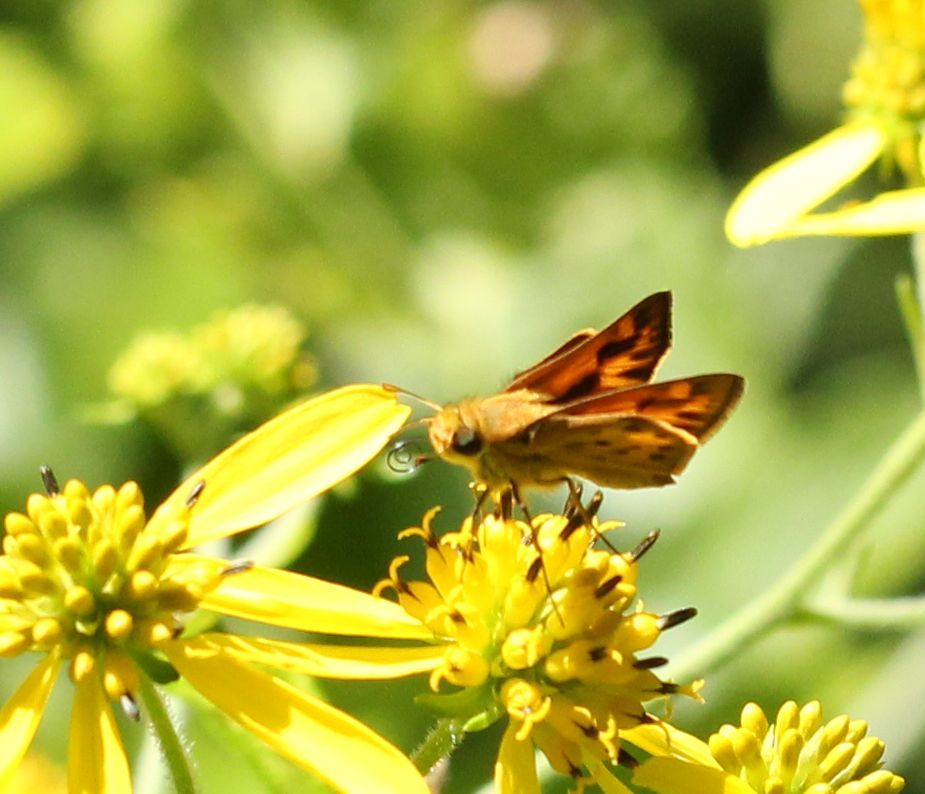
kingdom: Animalia
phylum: Arthropoda
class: Insecta
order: Lepidoptera
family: Hesperiidae
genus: Hylephila
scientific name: Hylephila phyleus
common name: Fiery skipper
